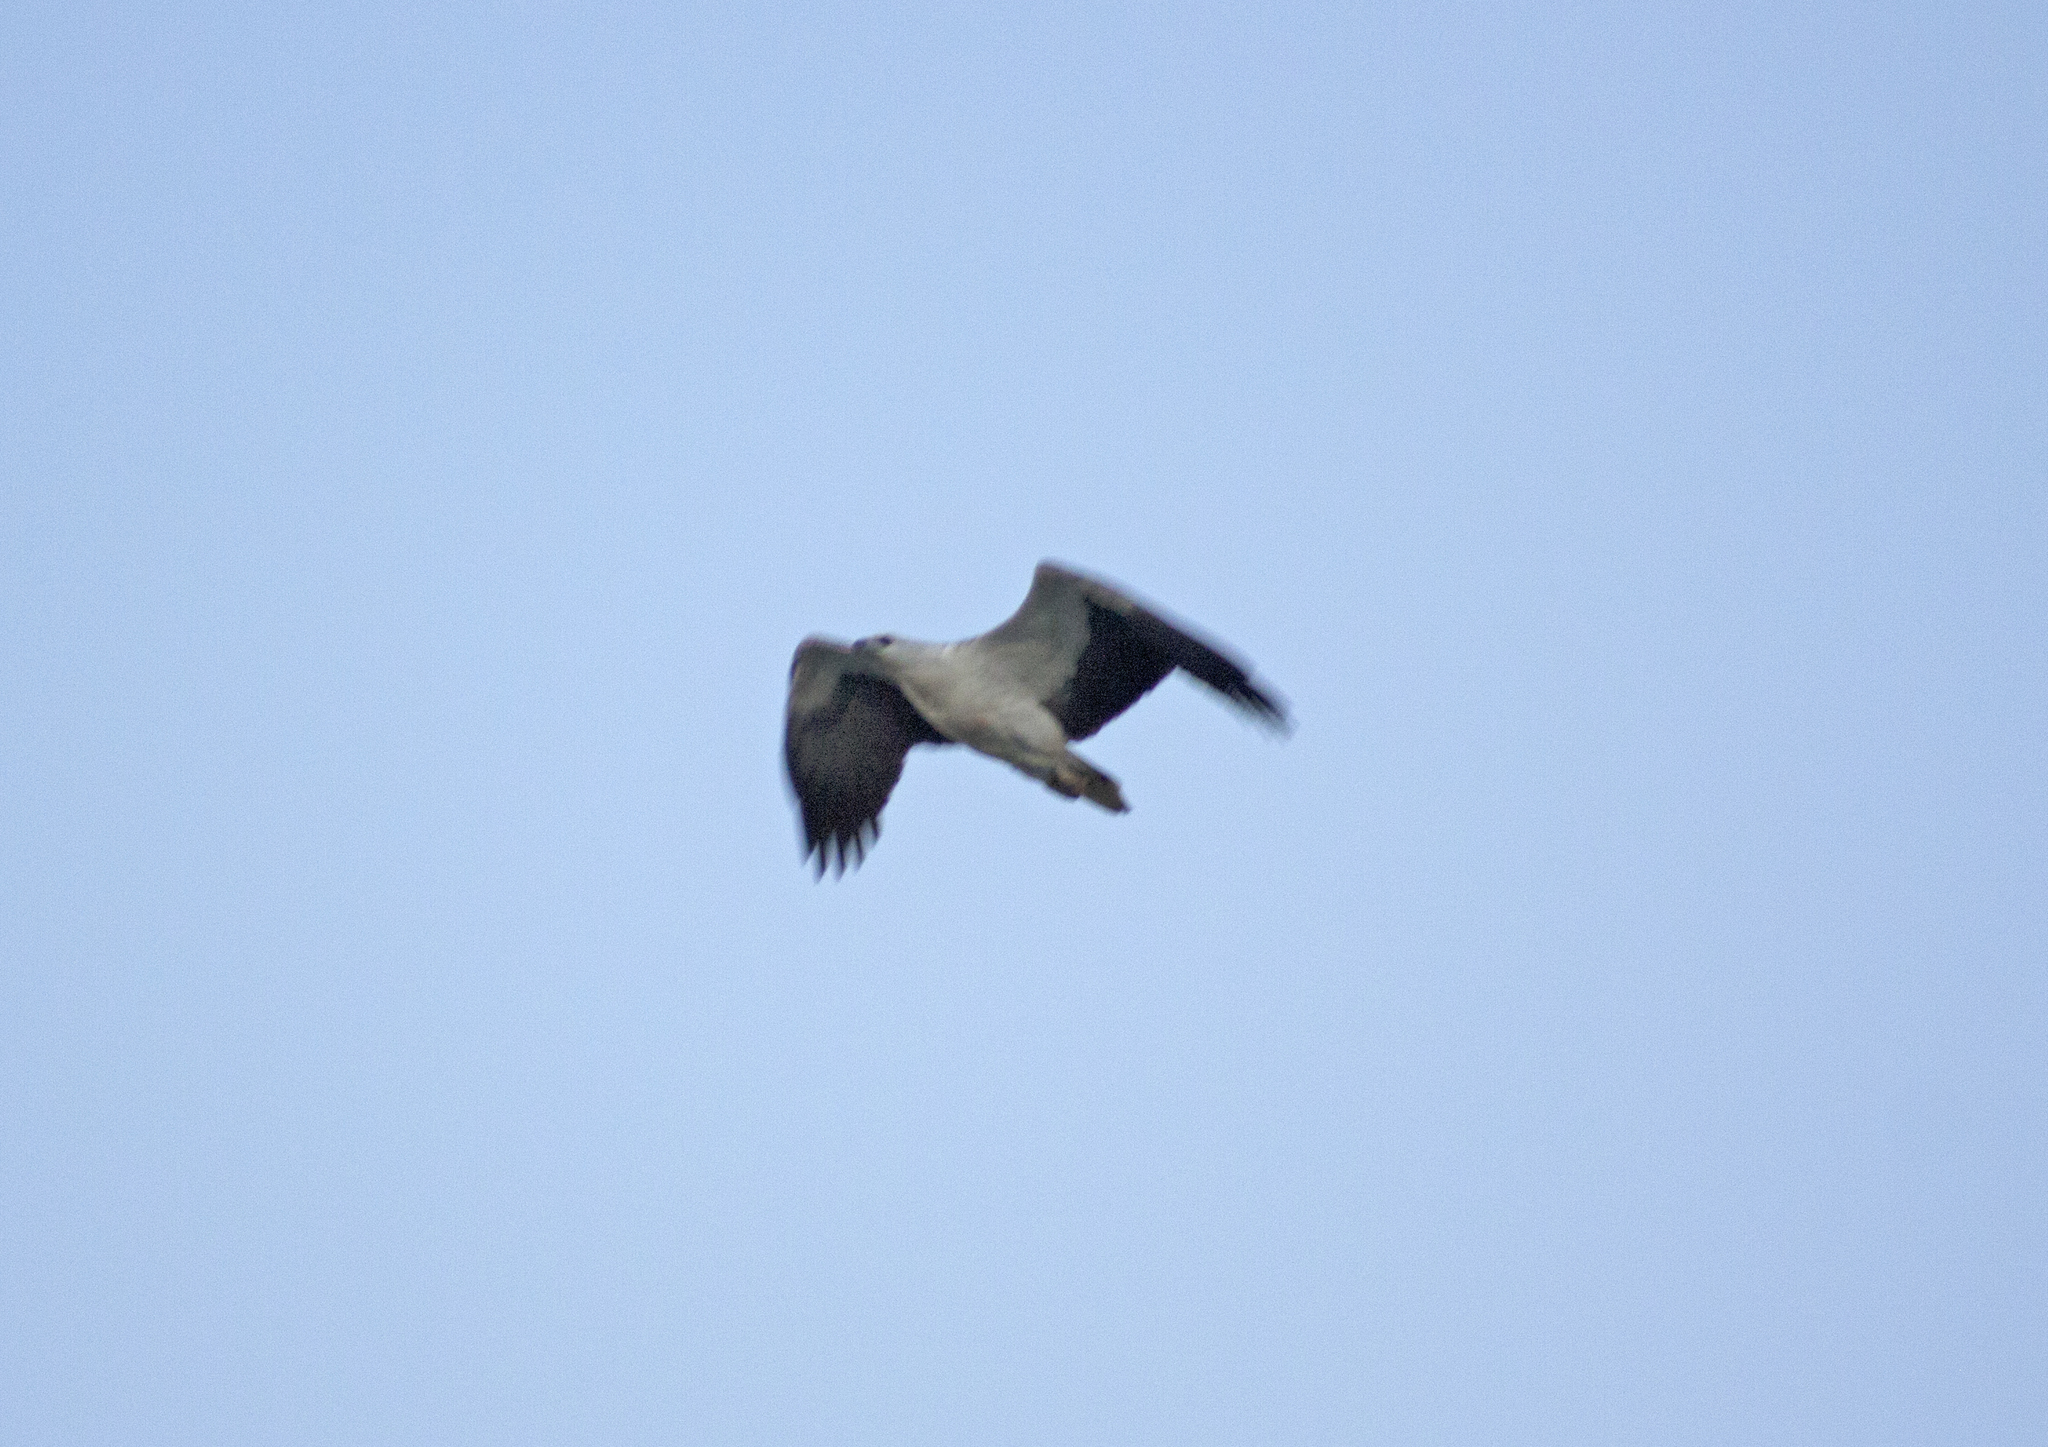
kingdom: Animalia
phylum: Chordata
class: Aves
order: Accipitriformes
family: Accipitridae
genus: Haliaeetus
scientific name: Haliaeetus leucogaster
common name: White-bellied sea eagle
